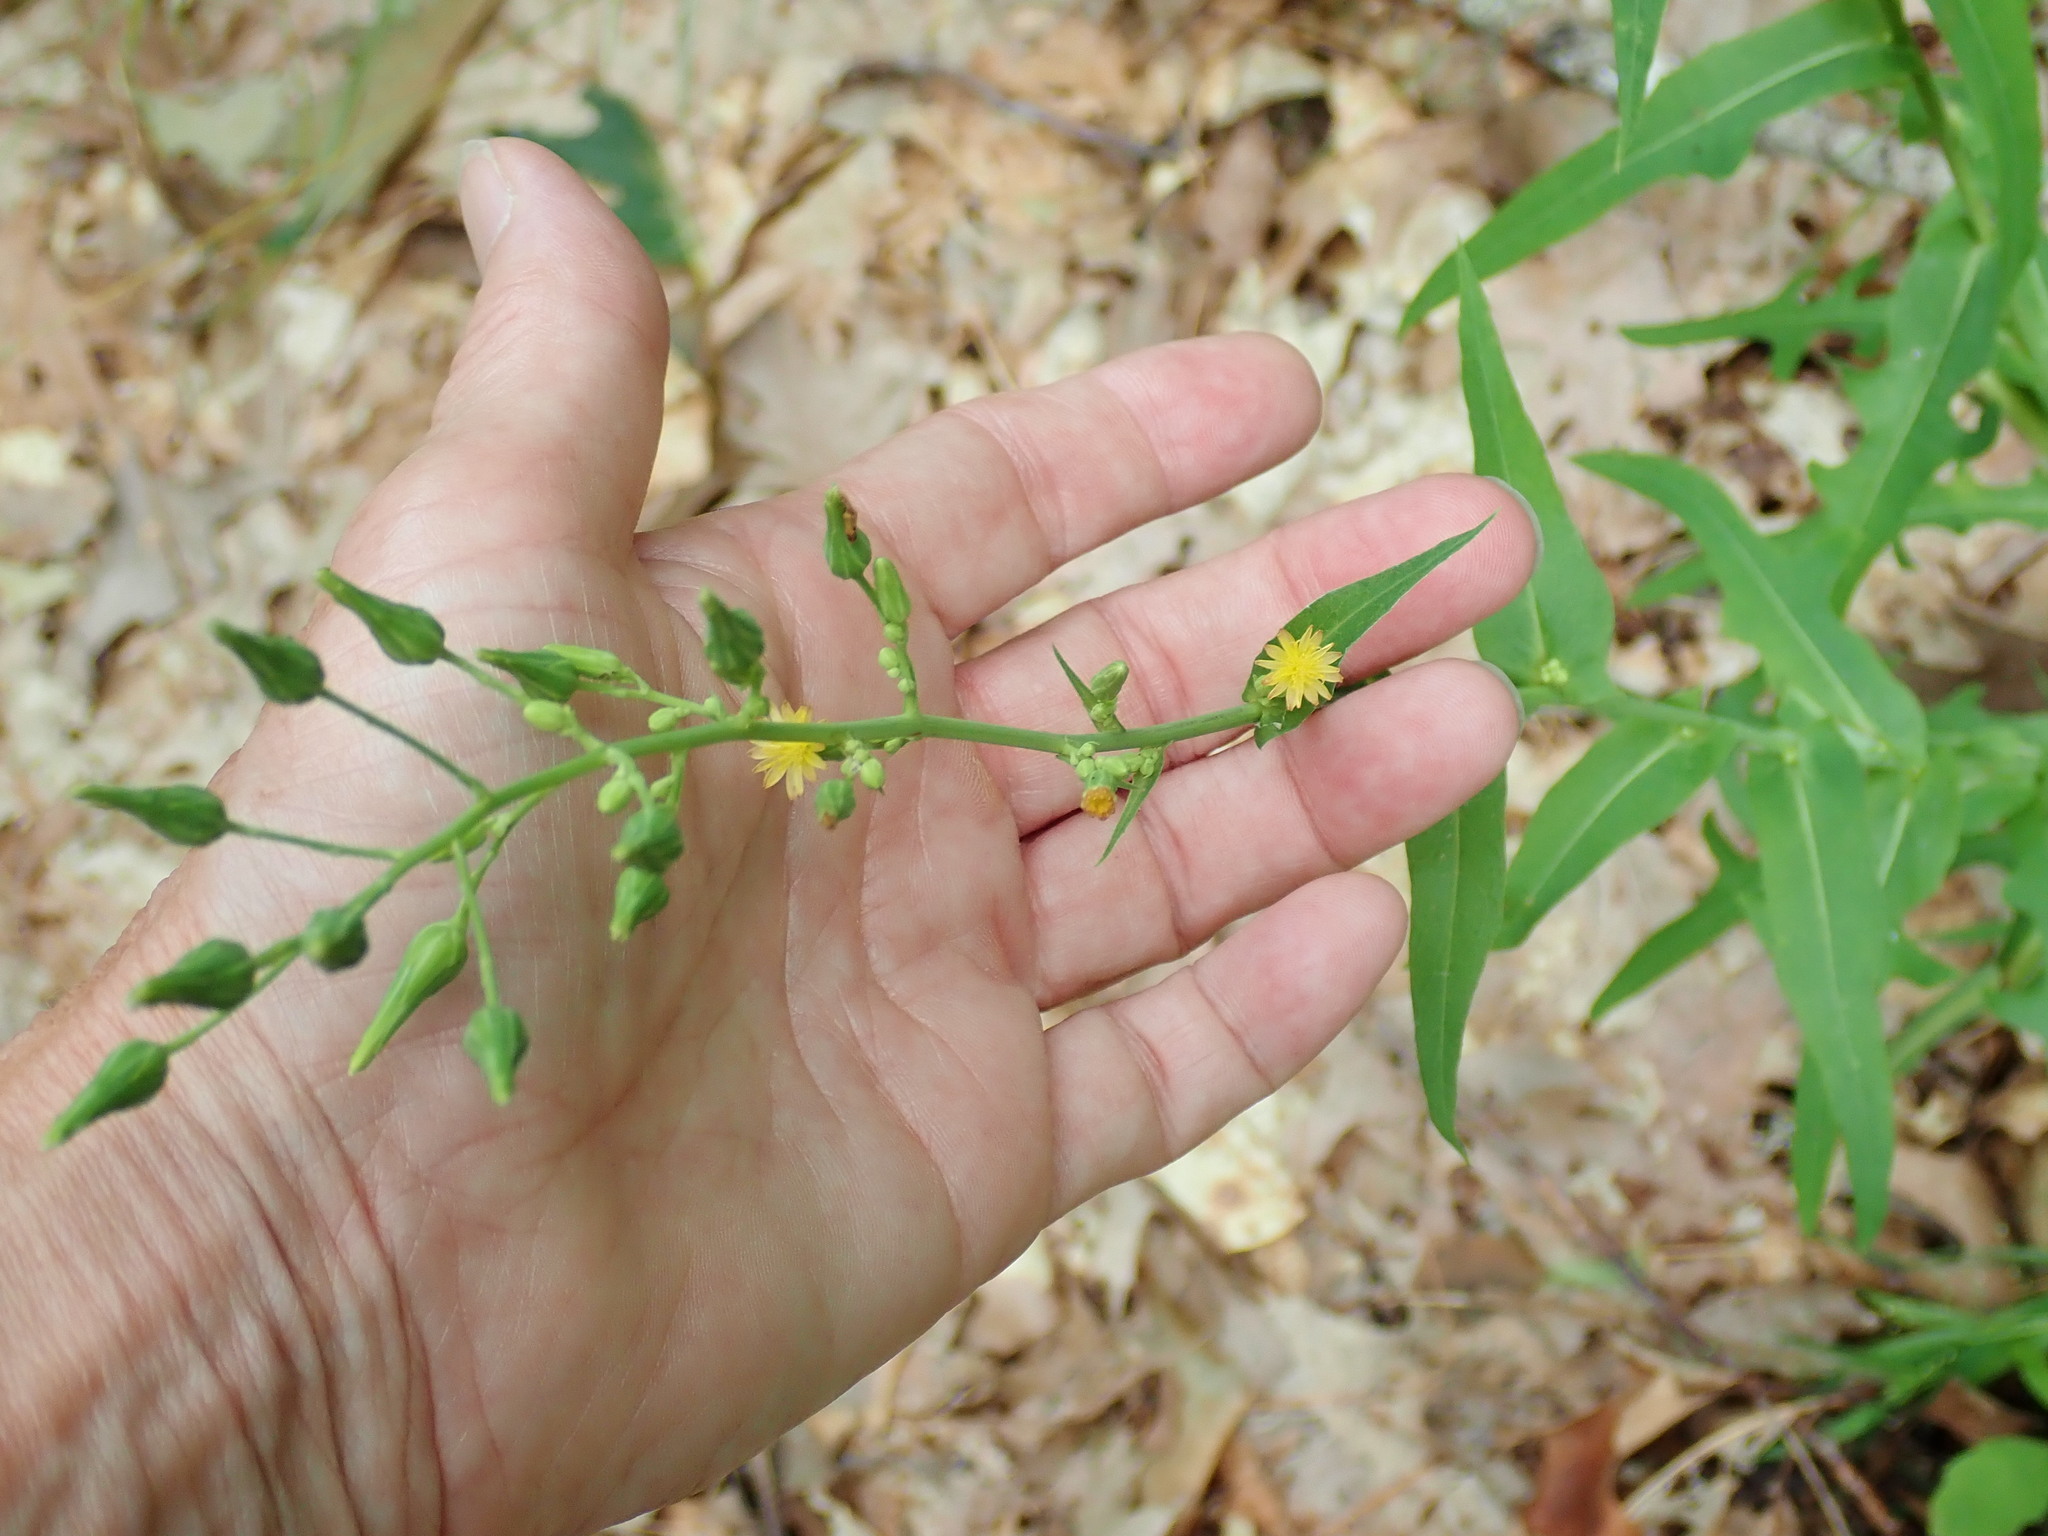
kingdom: Plantae
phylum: Tracheophyta
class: Magnoliopsida
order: Asterales
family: Asteraceae
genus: Lactuca
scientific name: Lactuca canadensis
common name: Canada lettuce
